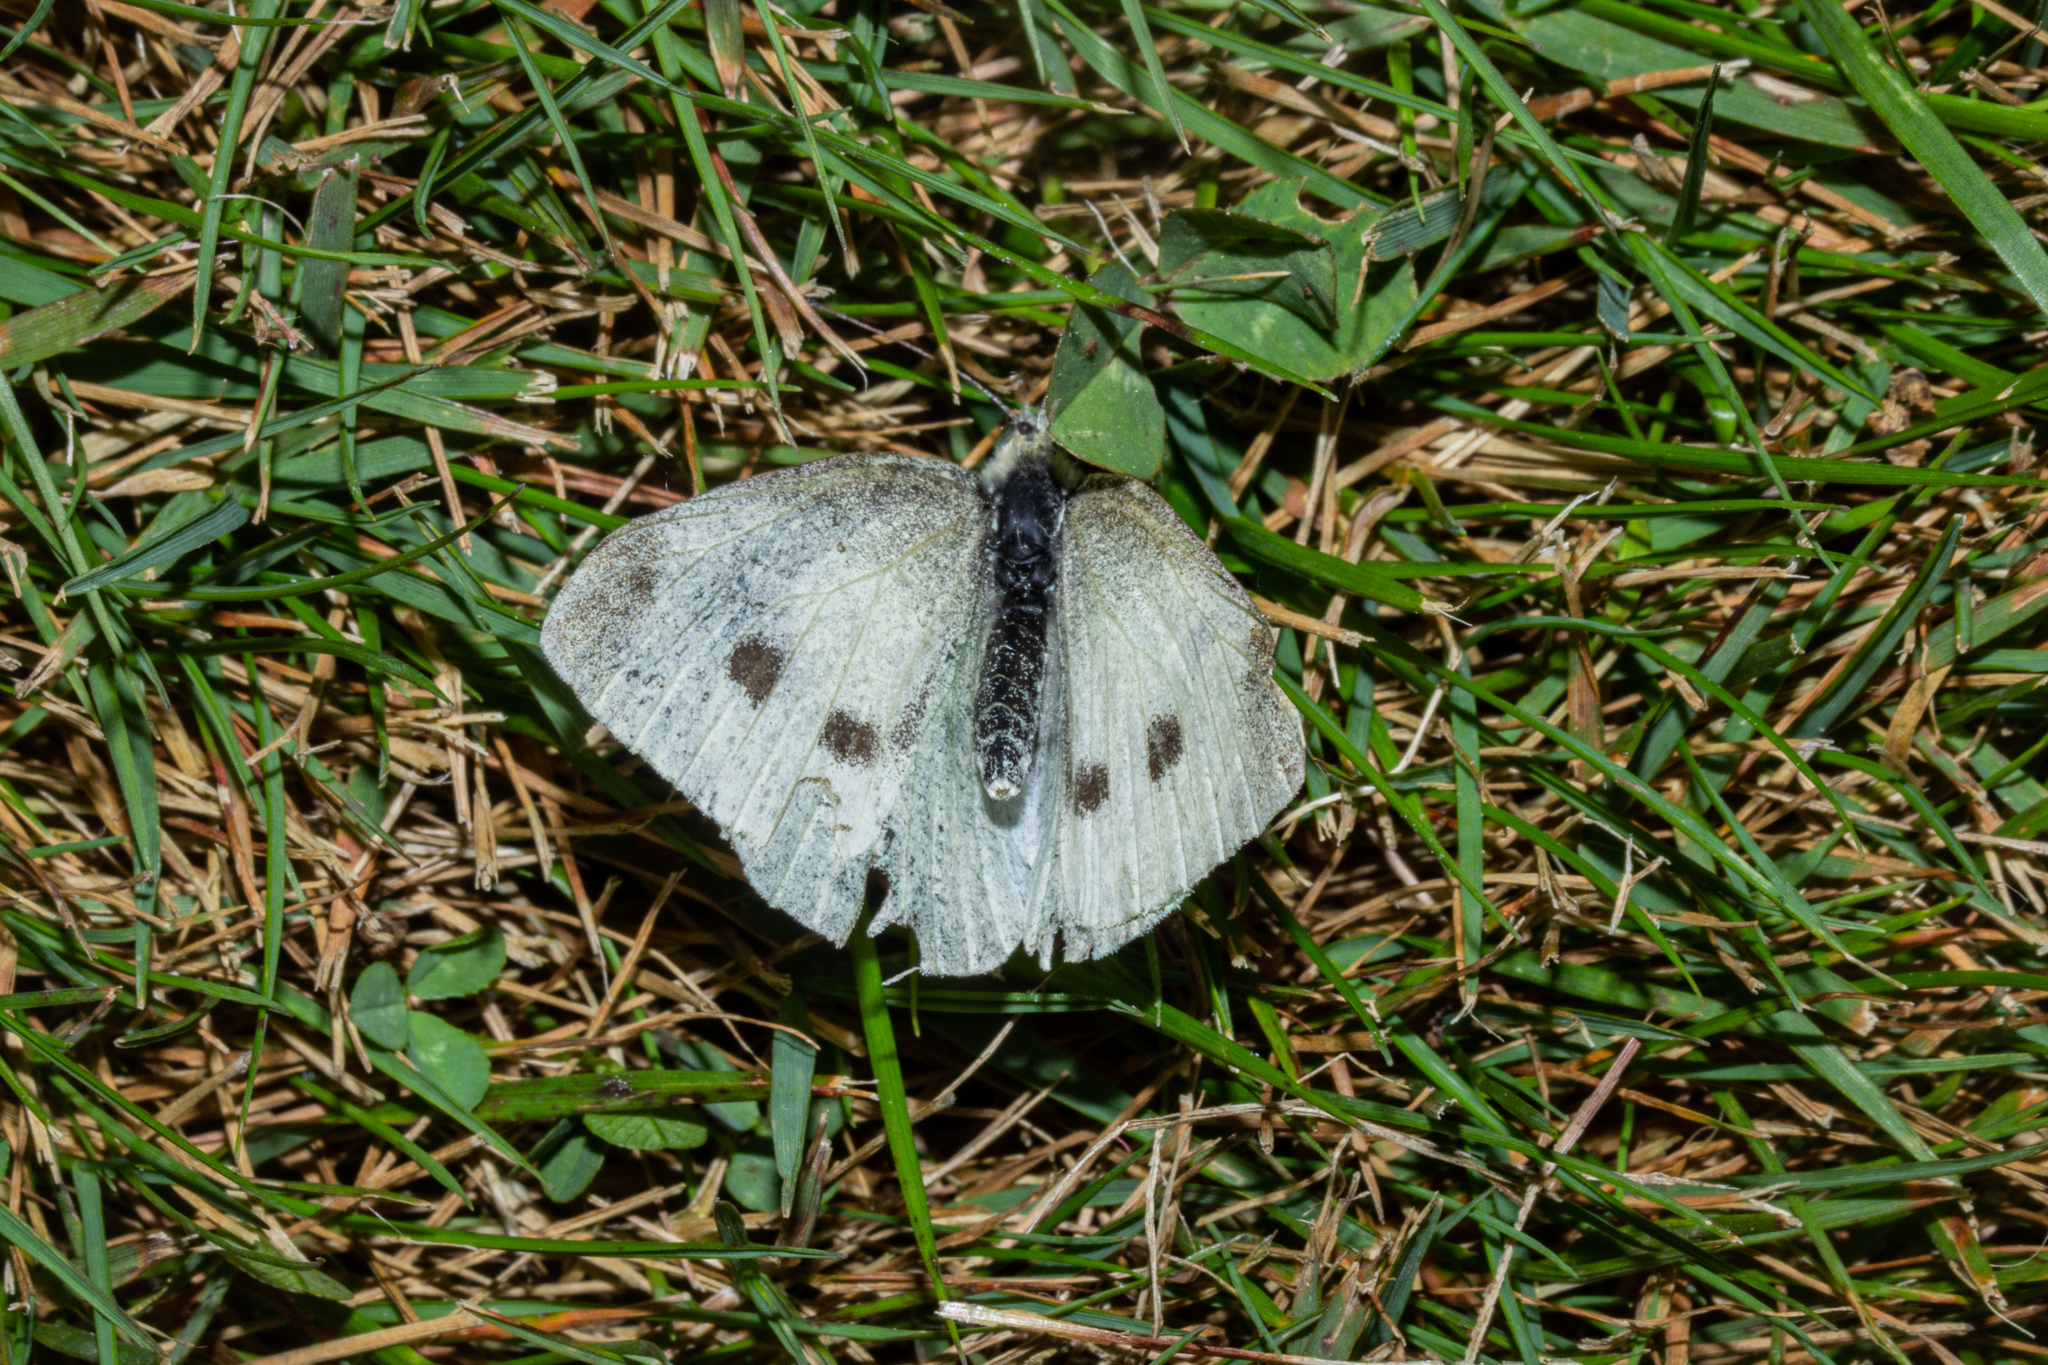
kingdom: Animalia
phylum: Arthropoda
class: Insecta
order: Lepidoptera
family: Pieridae
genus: Pieris
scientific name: Pieris rapae
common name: Small white
